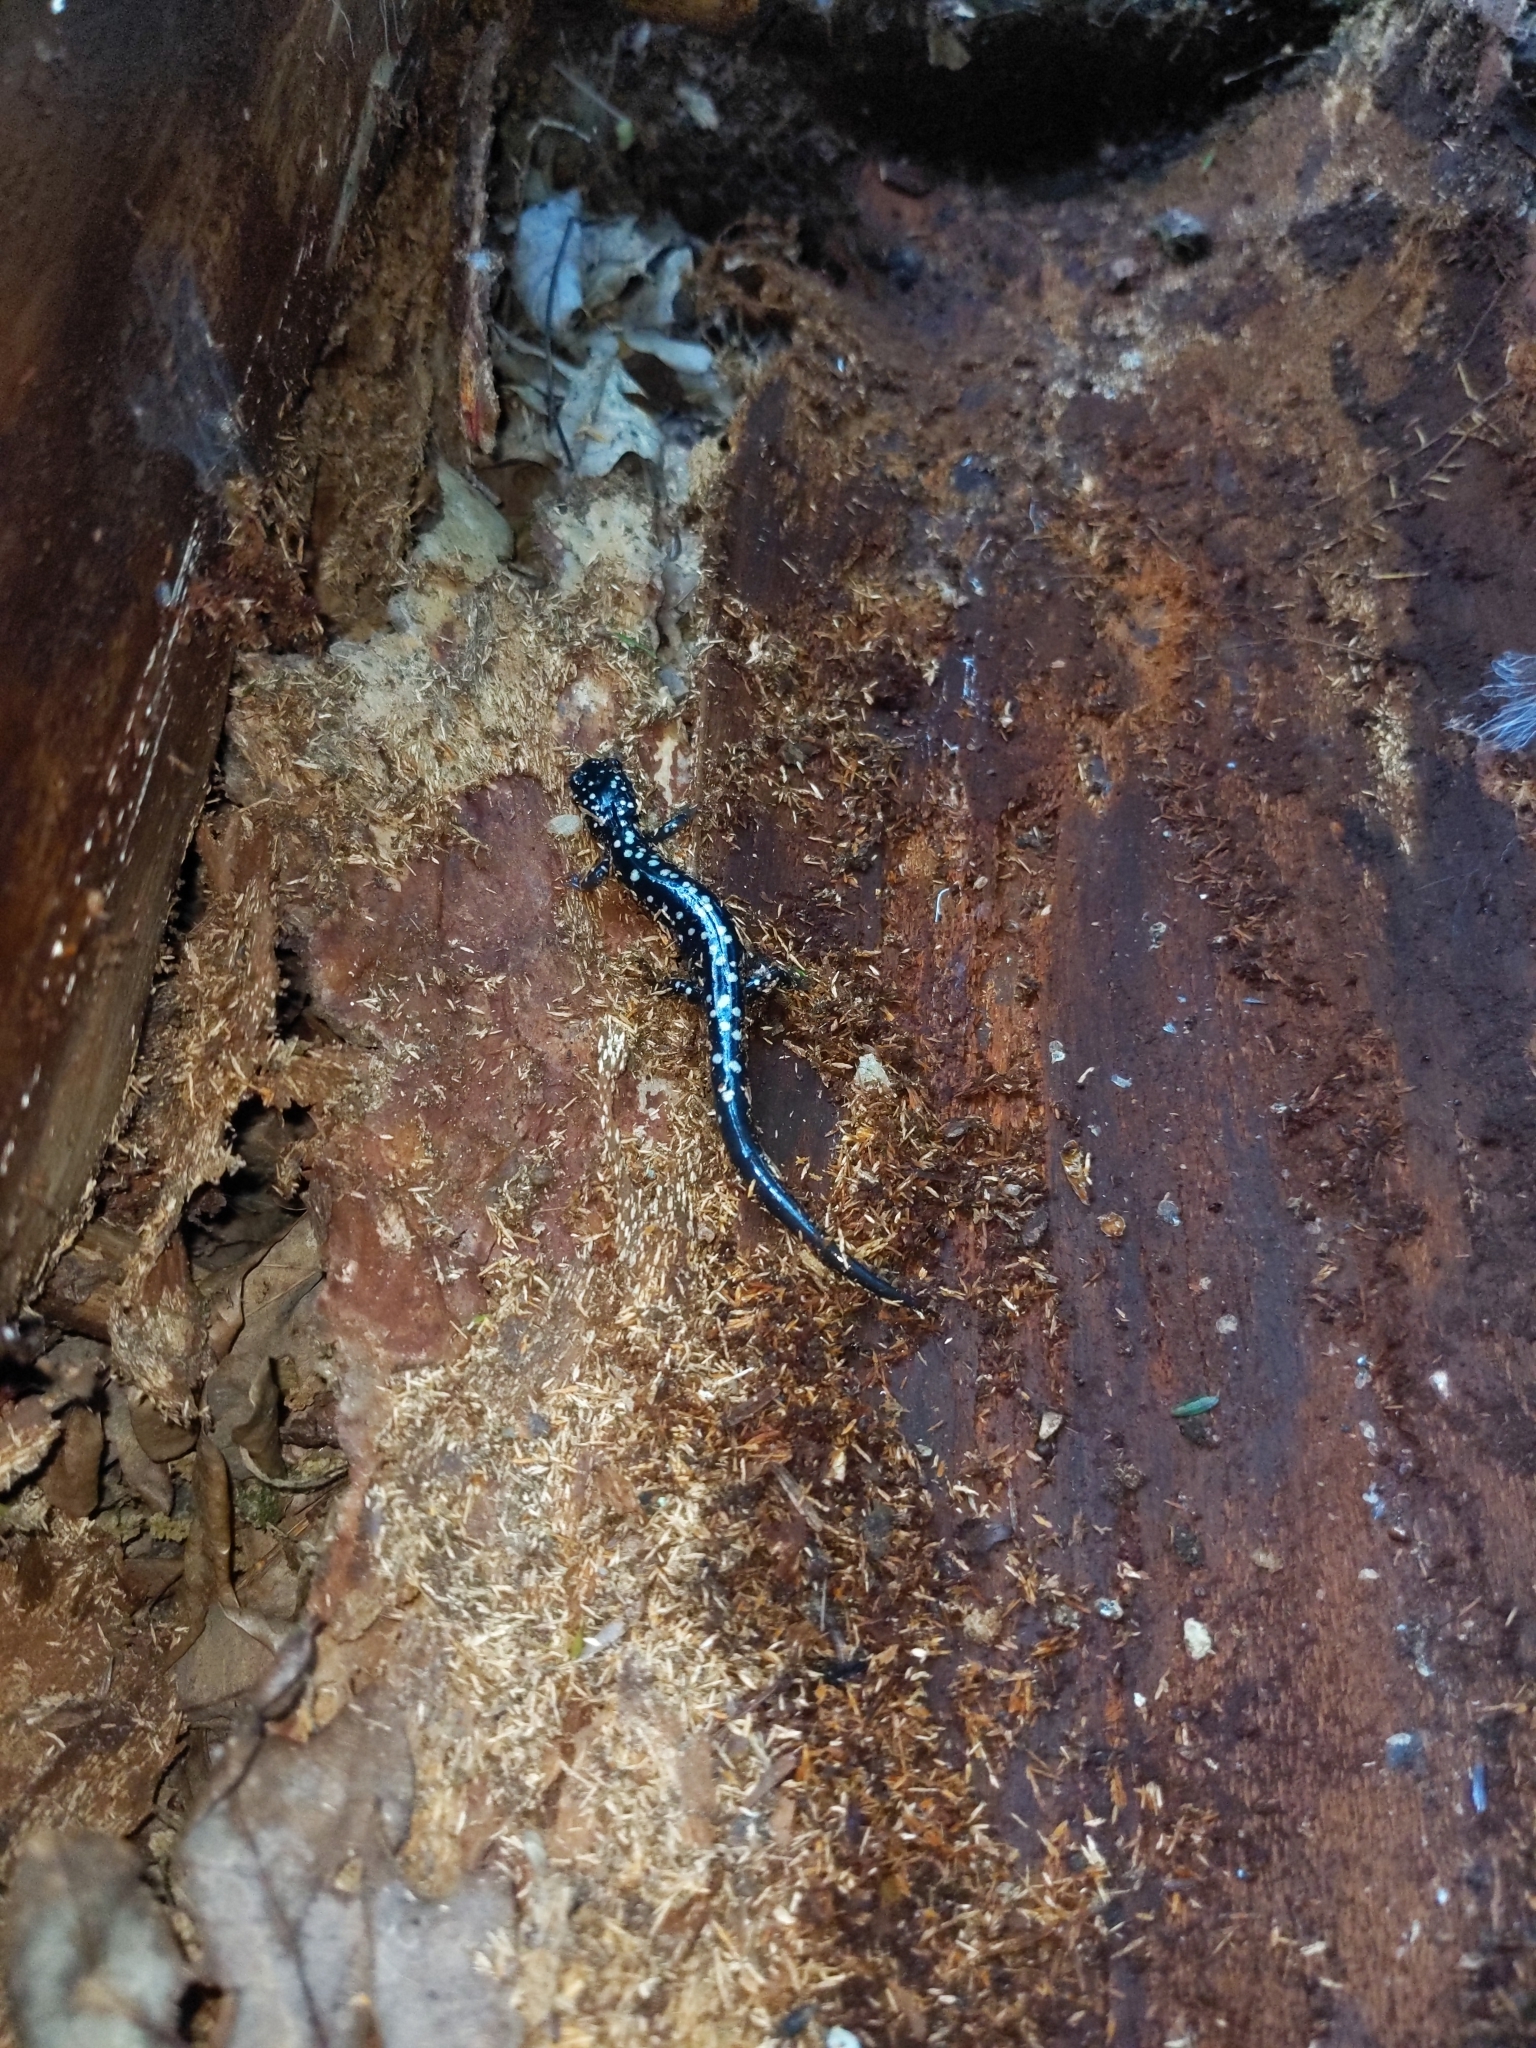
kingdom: Animalia
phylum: Chordata
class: Amphibia
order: Caudata
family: Plethodontidae
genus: Plethodon
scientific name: Plethodon glutinosus
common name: Northern slimy salamander
